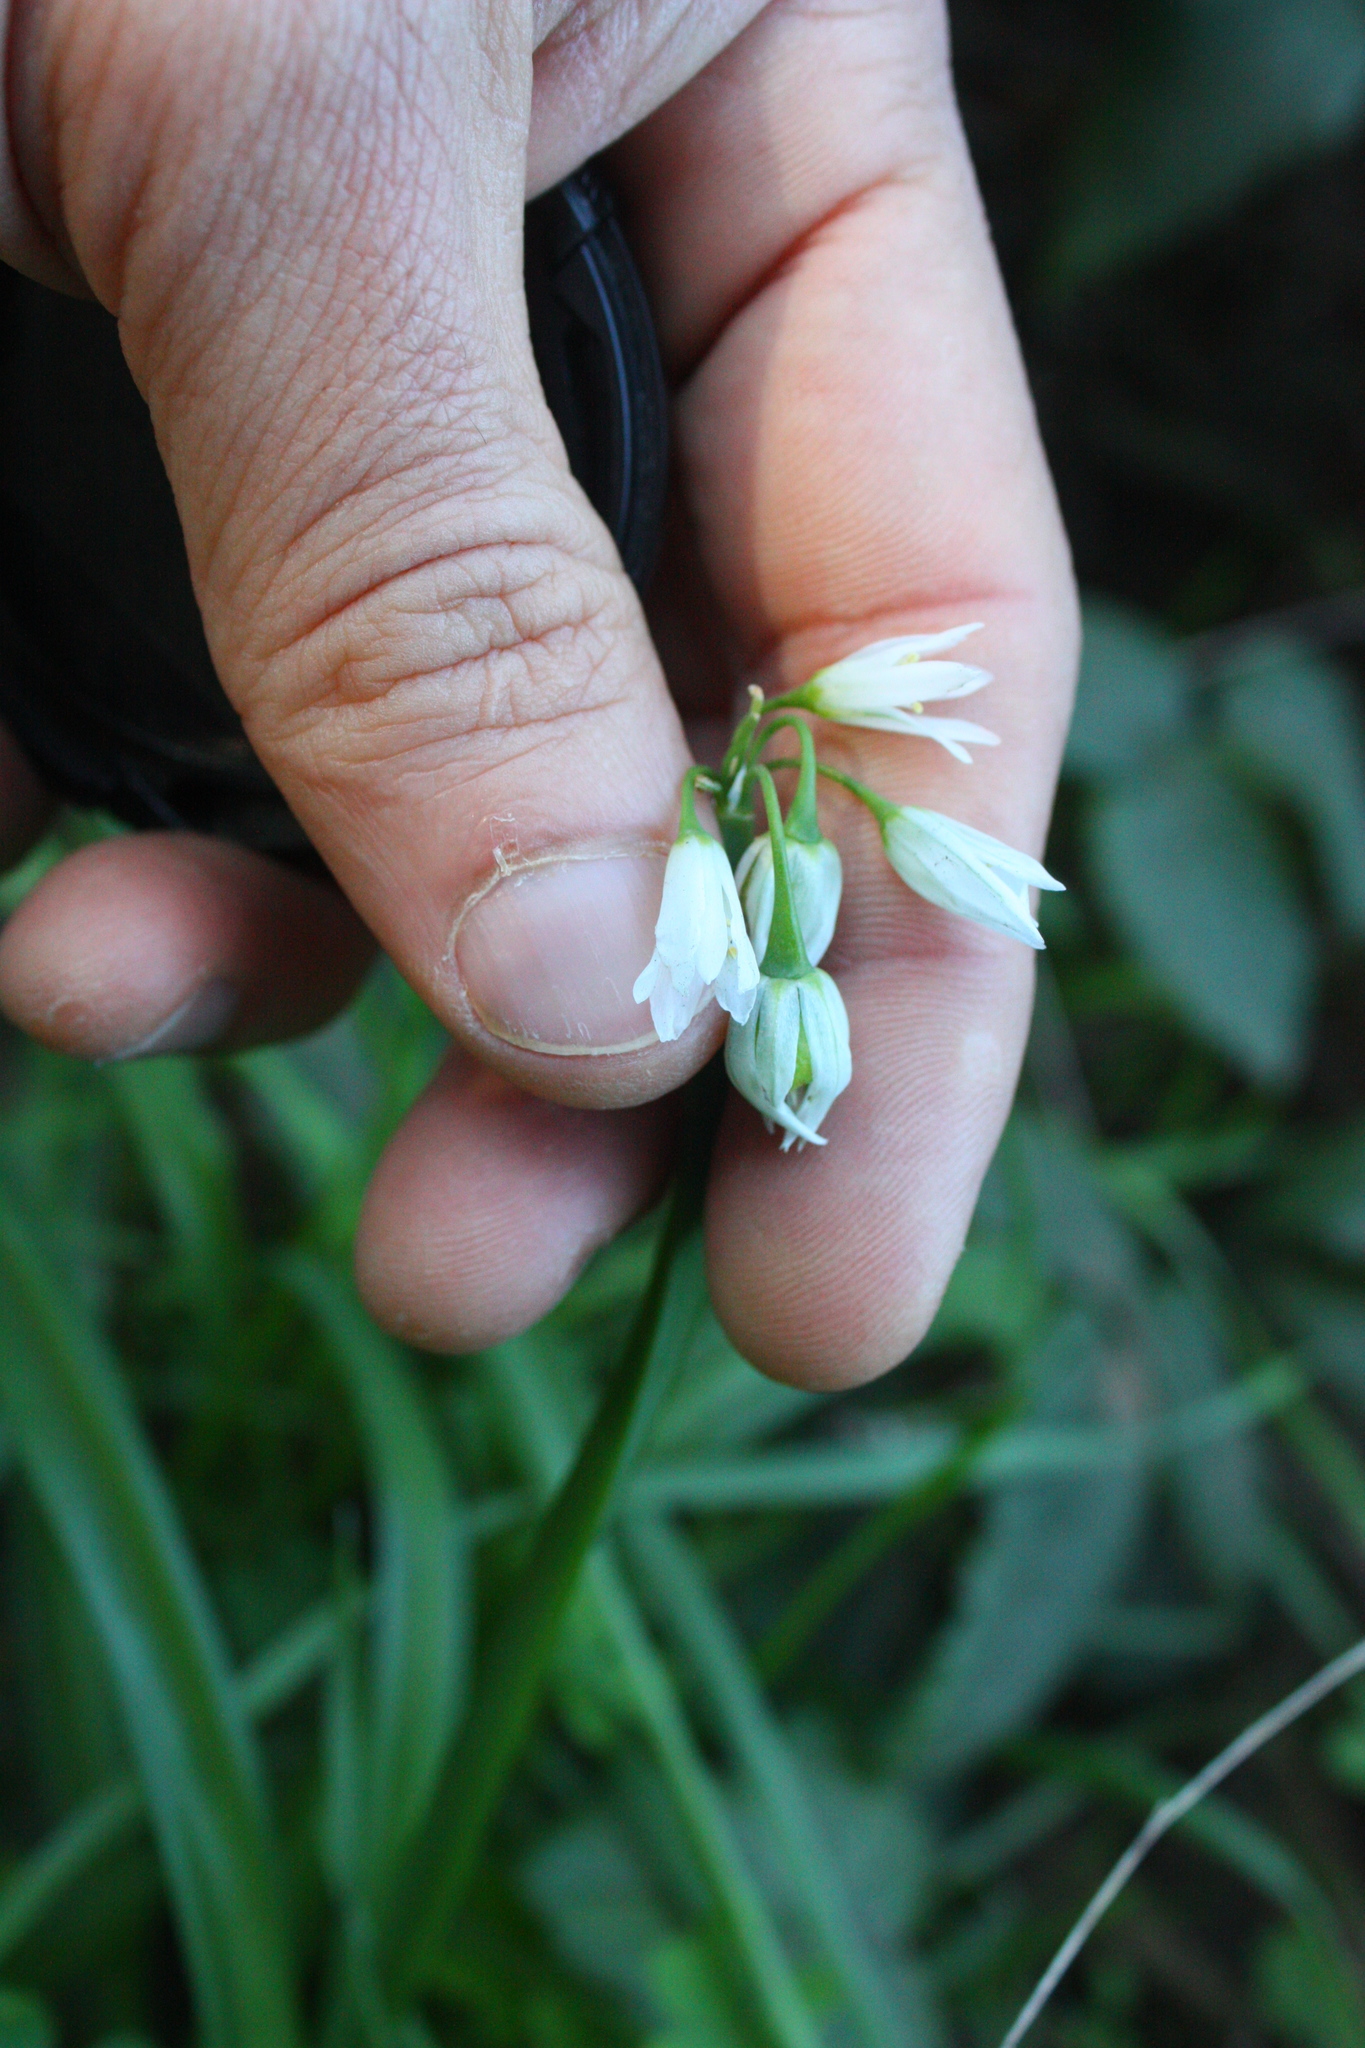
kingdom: Plantae
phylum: Tracheophyta
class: Liliopsida
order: Asparagales
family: Amaryllidaceae
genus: Allium
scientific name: Allium triquetrum
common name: Three-cornered garlic
